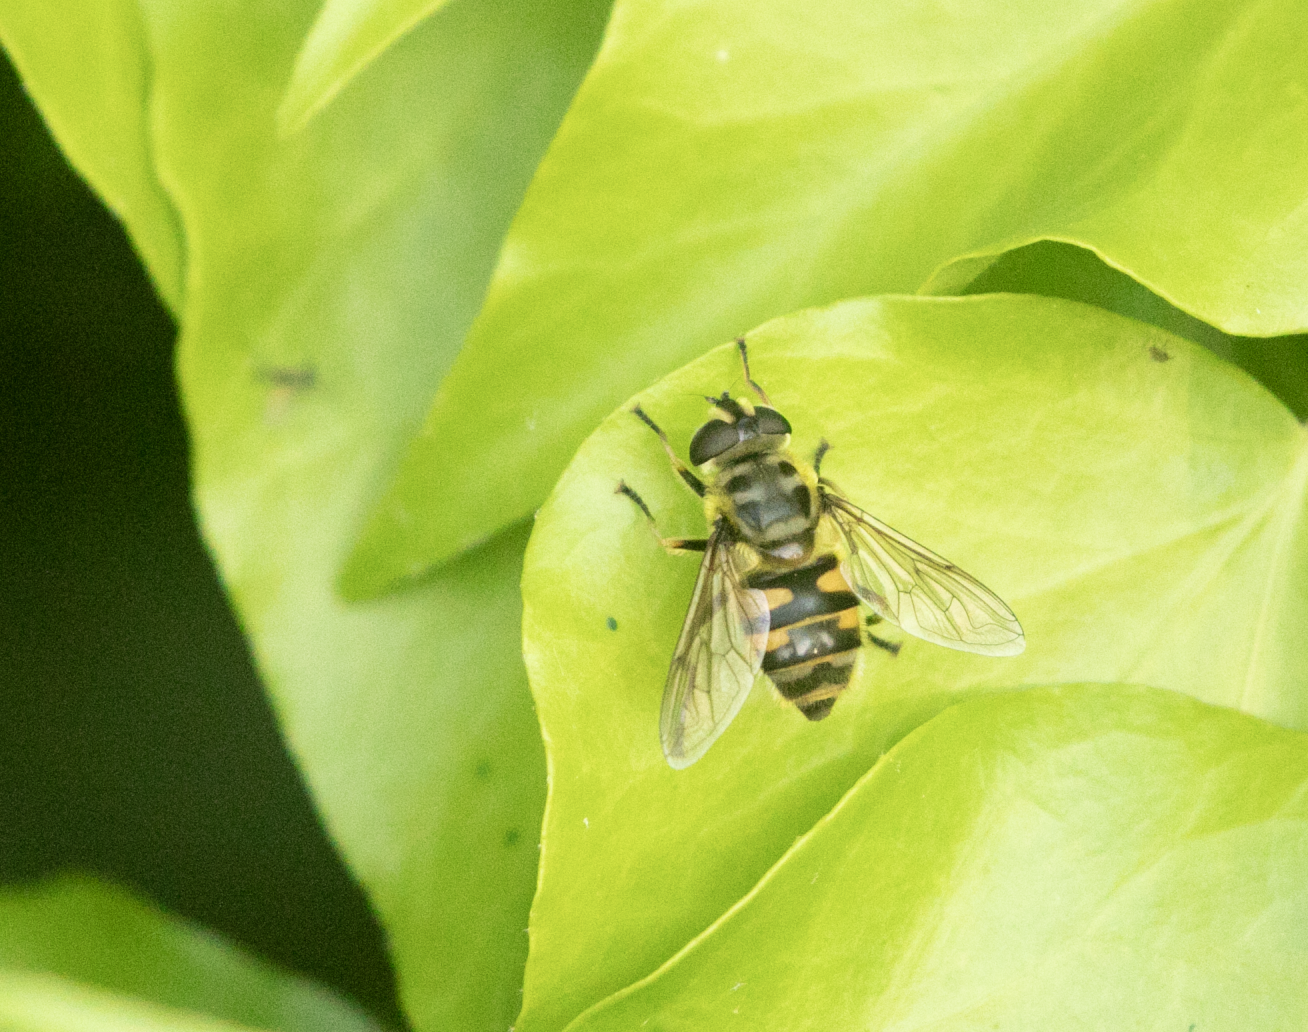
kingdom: Animalia
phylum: Arthropoda
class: Insecta
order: Diptera
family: Syrphidae
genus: Myathropa
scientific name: Myathropa florea
